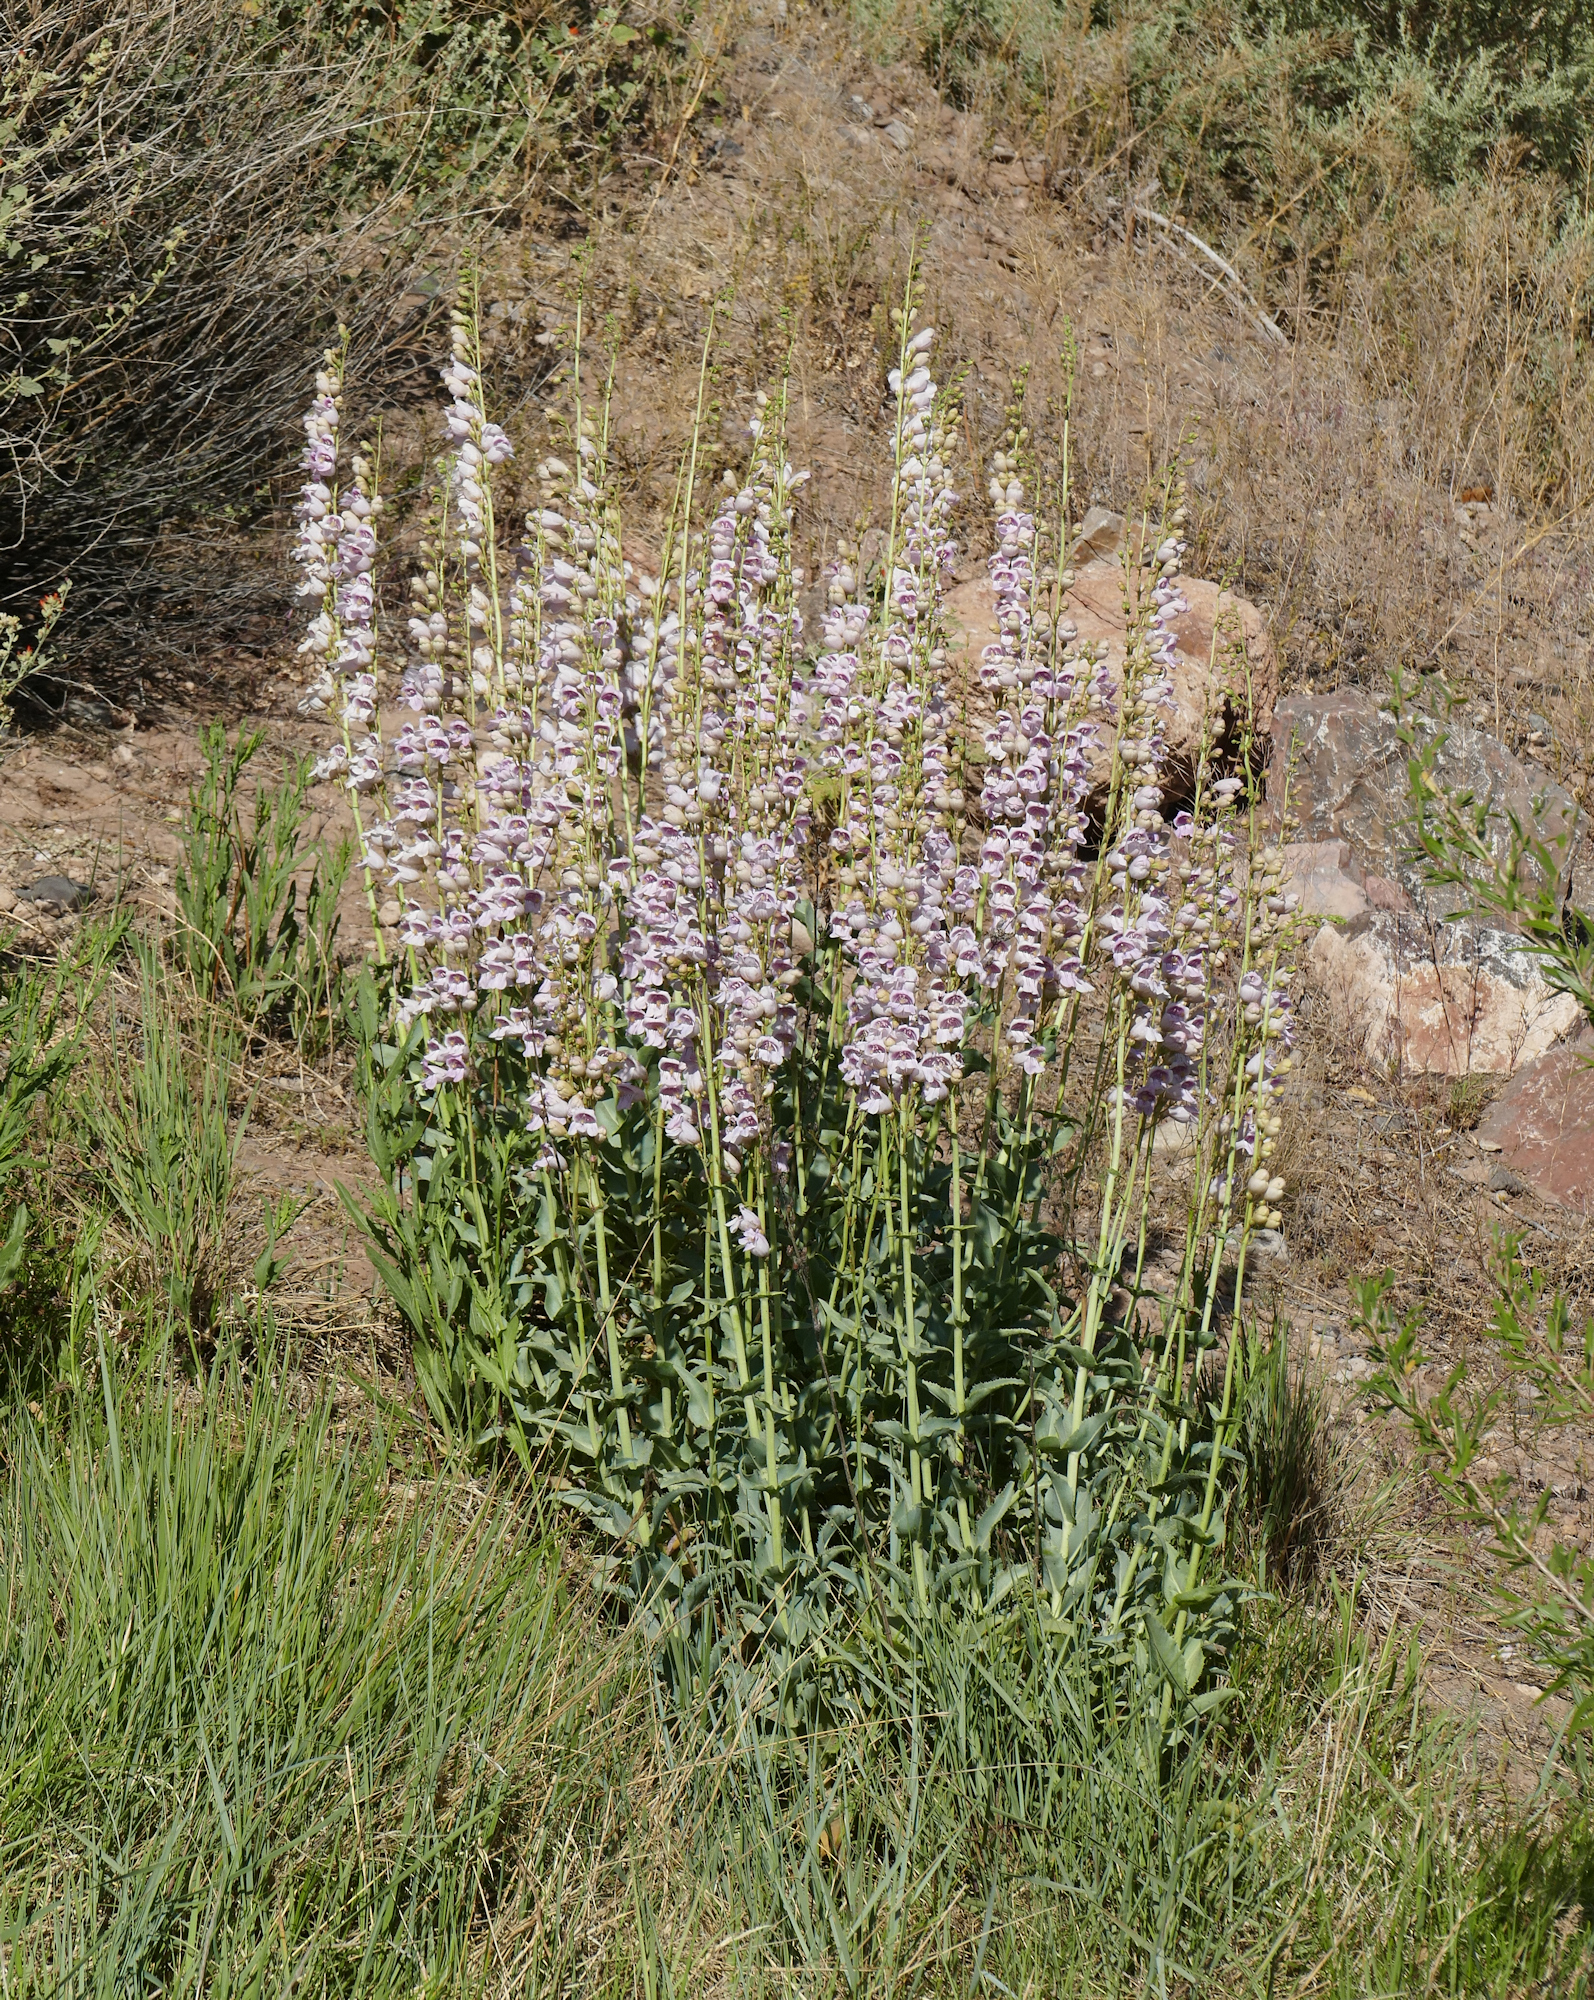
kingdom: Plantae
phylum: Tracheophyta
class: Magnoliopsida
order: Lamiales
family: Plantaginaceae
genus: Penstemon
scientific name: Penstemon palmeri
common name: Palmer penstemon
